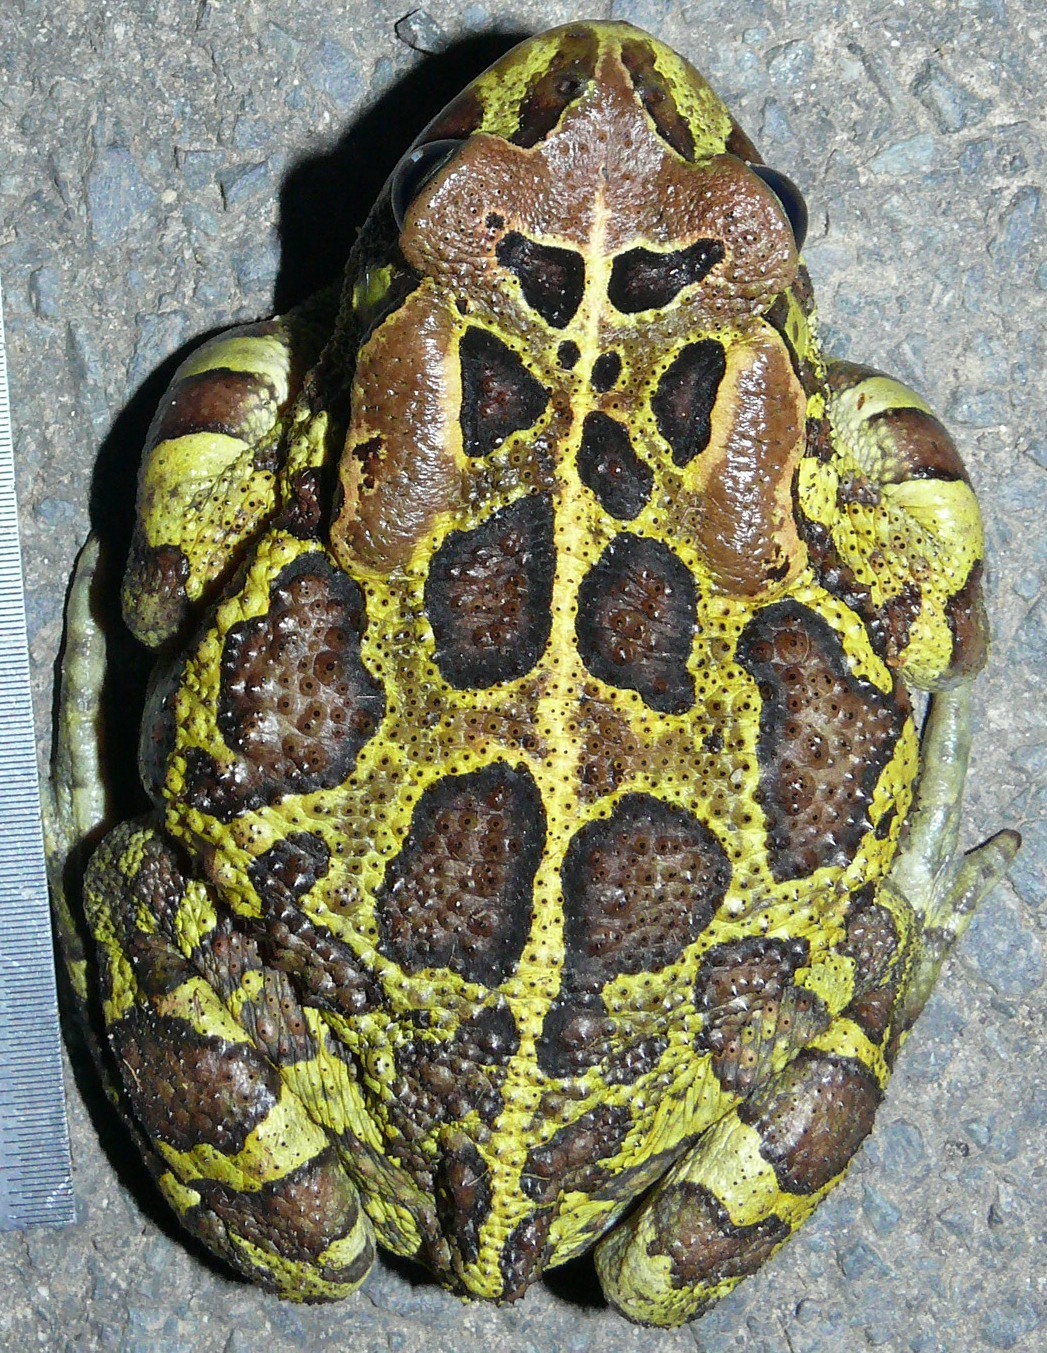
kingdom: Animalia
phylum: Chordata
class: Amphibia
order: Anura
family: Bufonidae
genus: Sclerophrys
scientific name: Sclerophrys pantherina
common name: Panther toad
